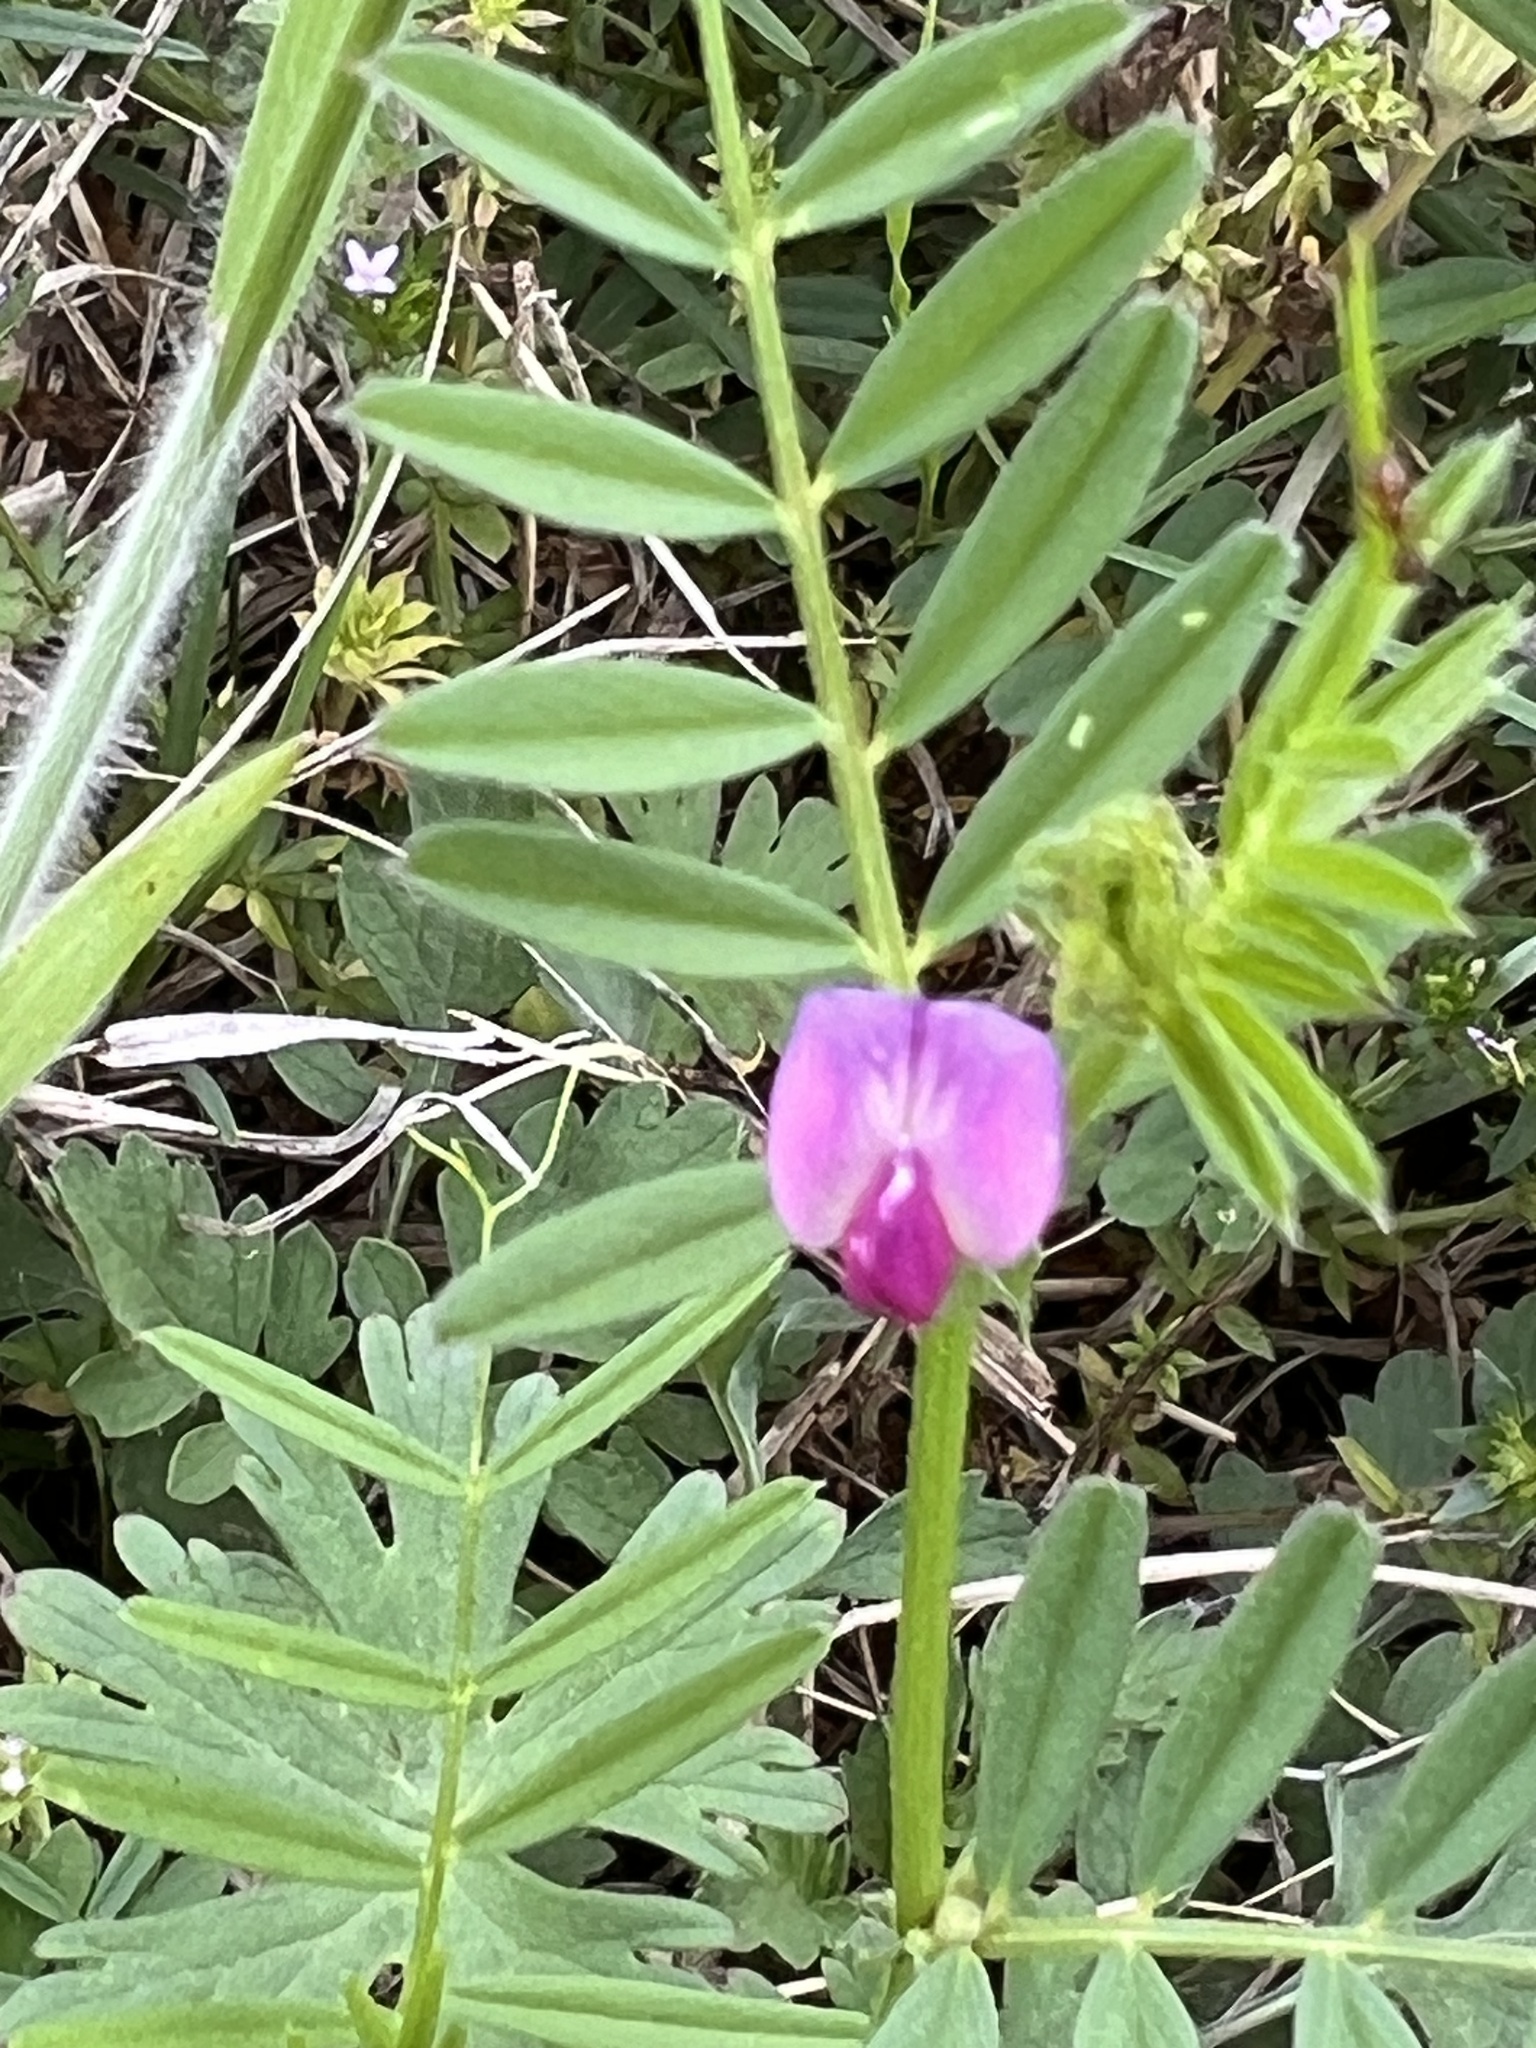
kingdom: Plantae
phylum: Tracheophyta
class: Magnoliopsida
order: Fabales
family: Fabaceae
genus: Vicia
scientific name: Vicia sativa
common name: Garden vetch
